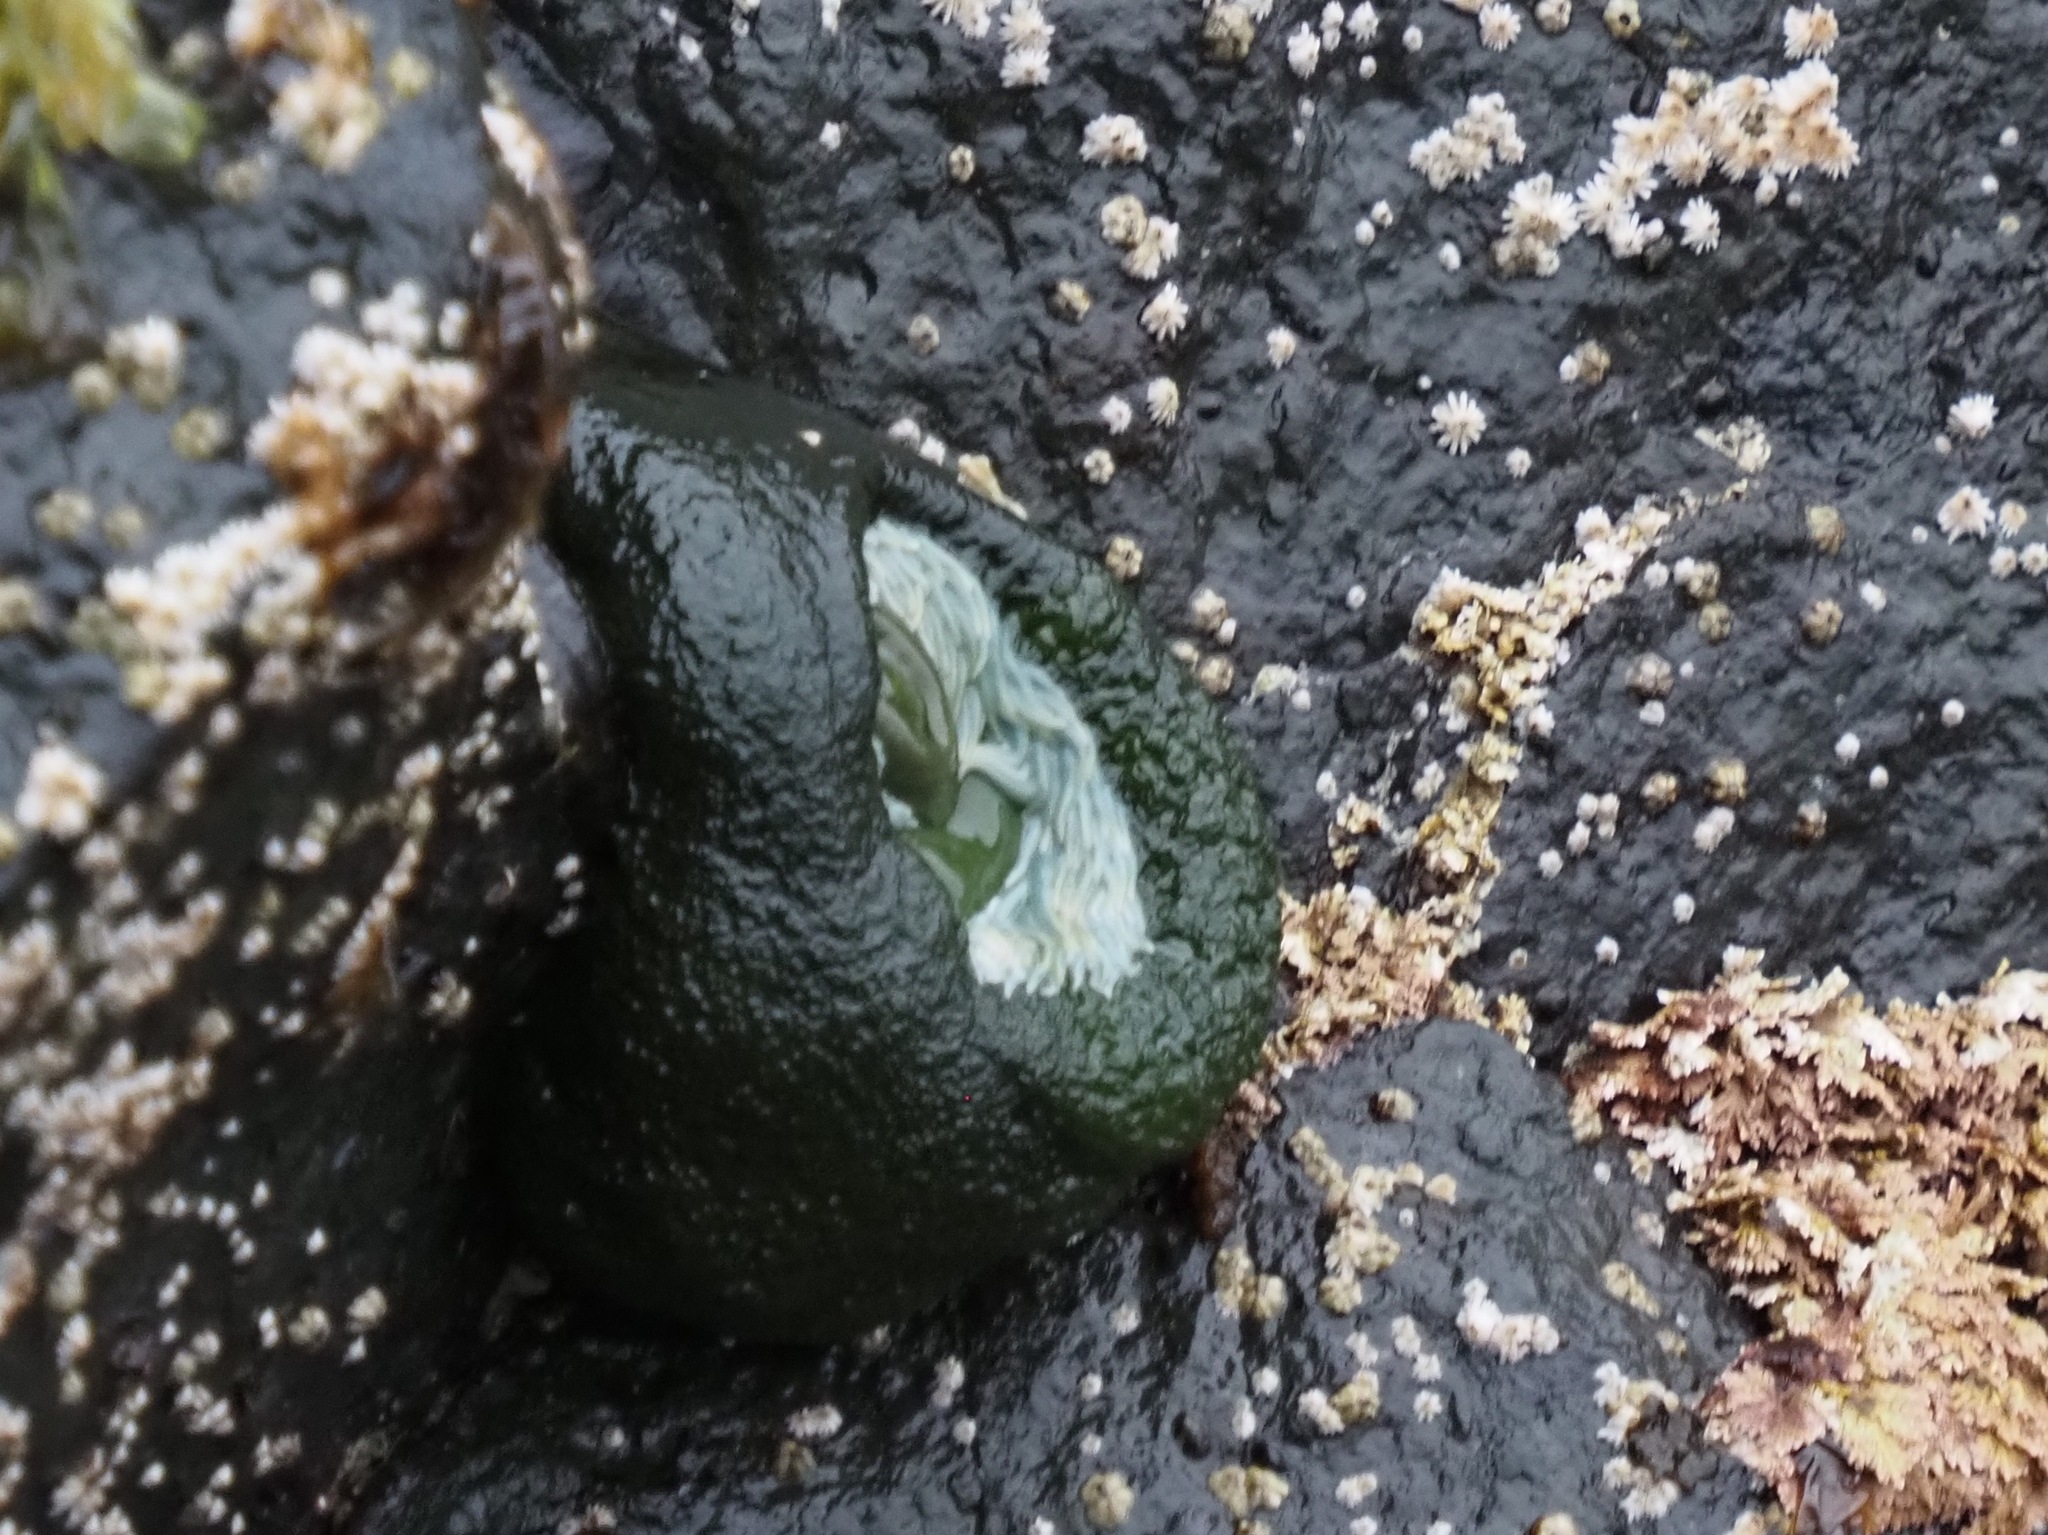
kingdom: Animalia
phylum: Cnidaria
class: Anthozoa
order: Actiniaria
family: Actiniidae
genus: Anthopleura
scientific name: Anthopleura xanthogrammica
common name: Giant green anemone
